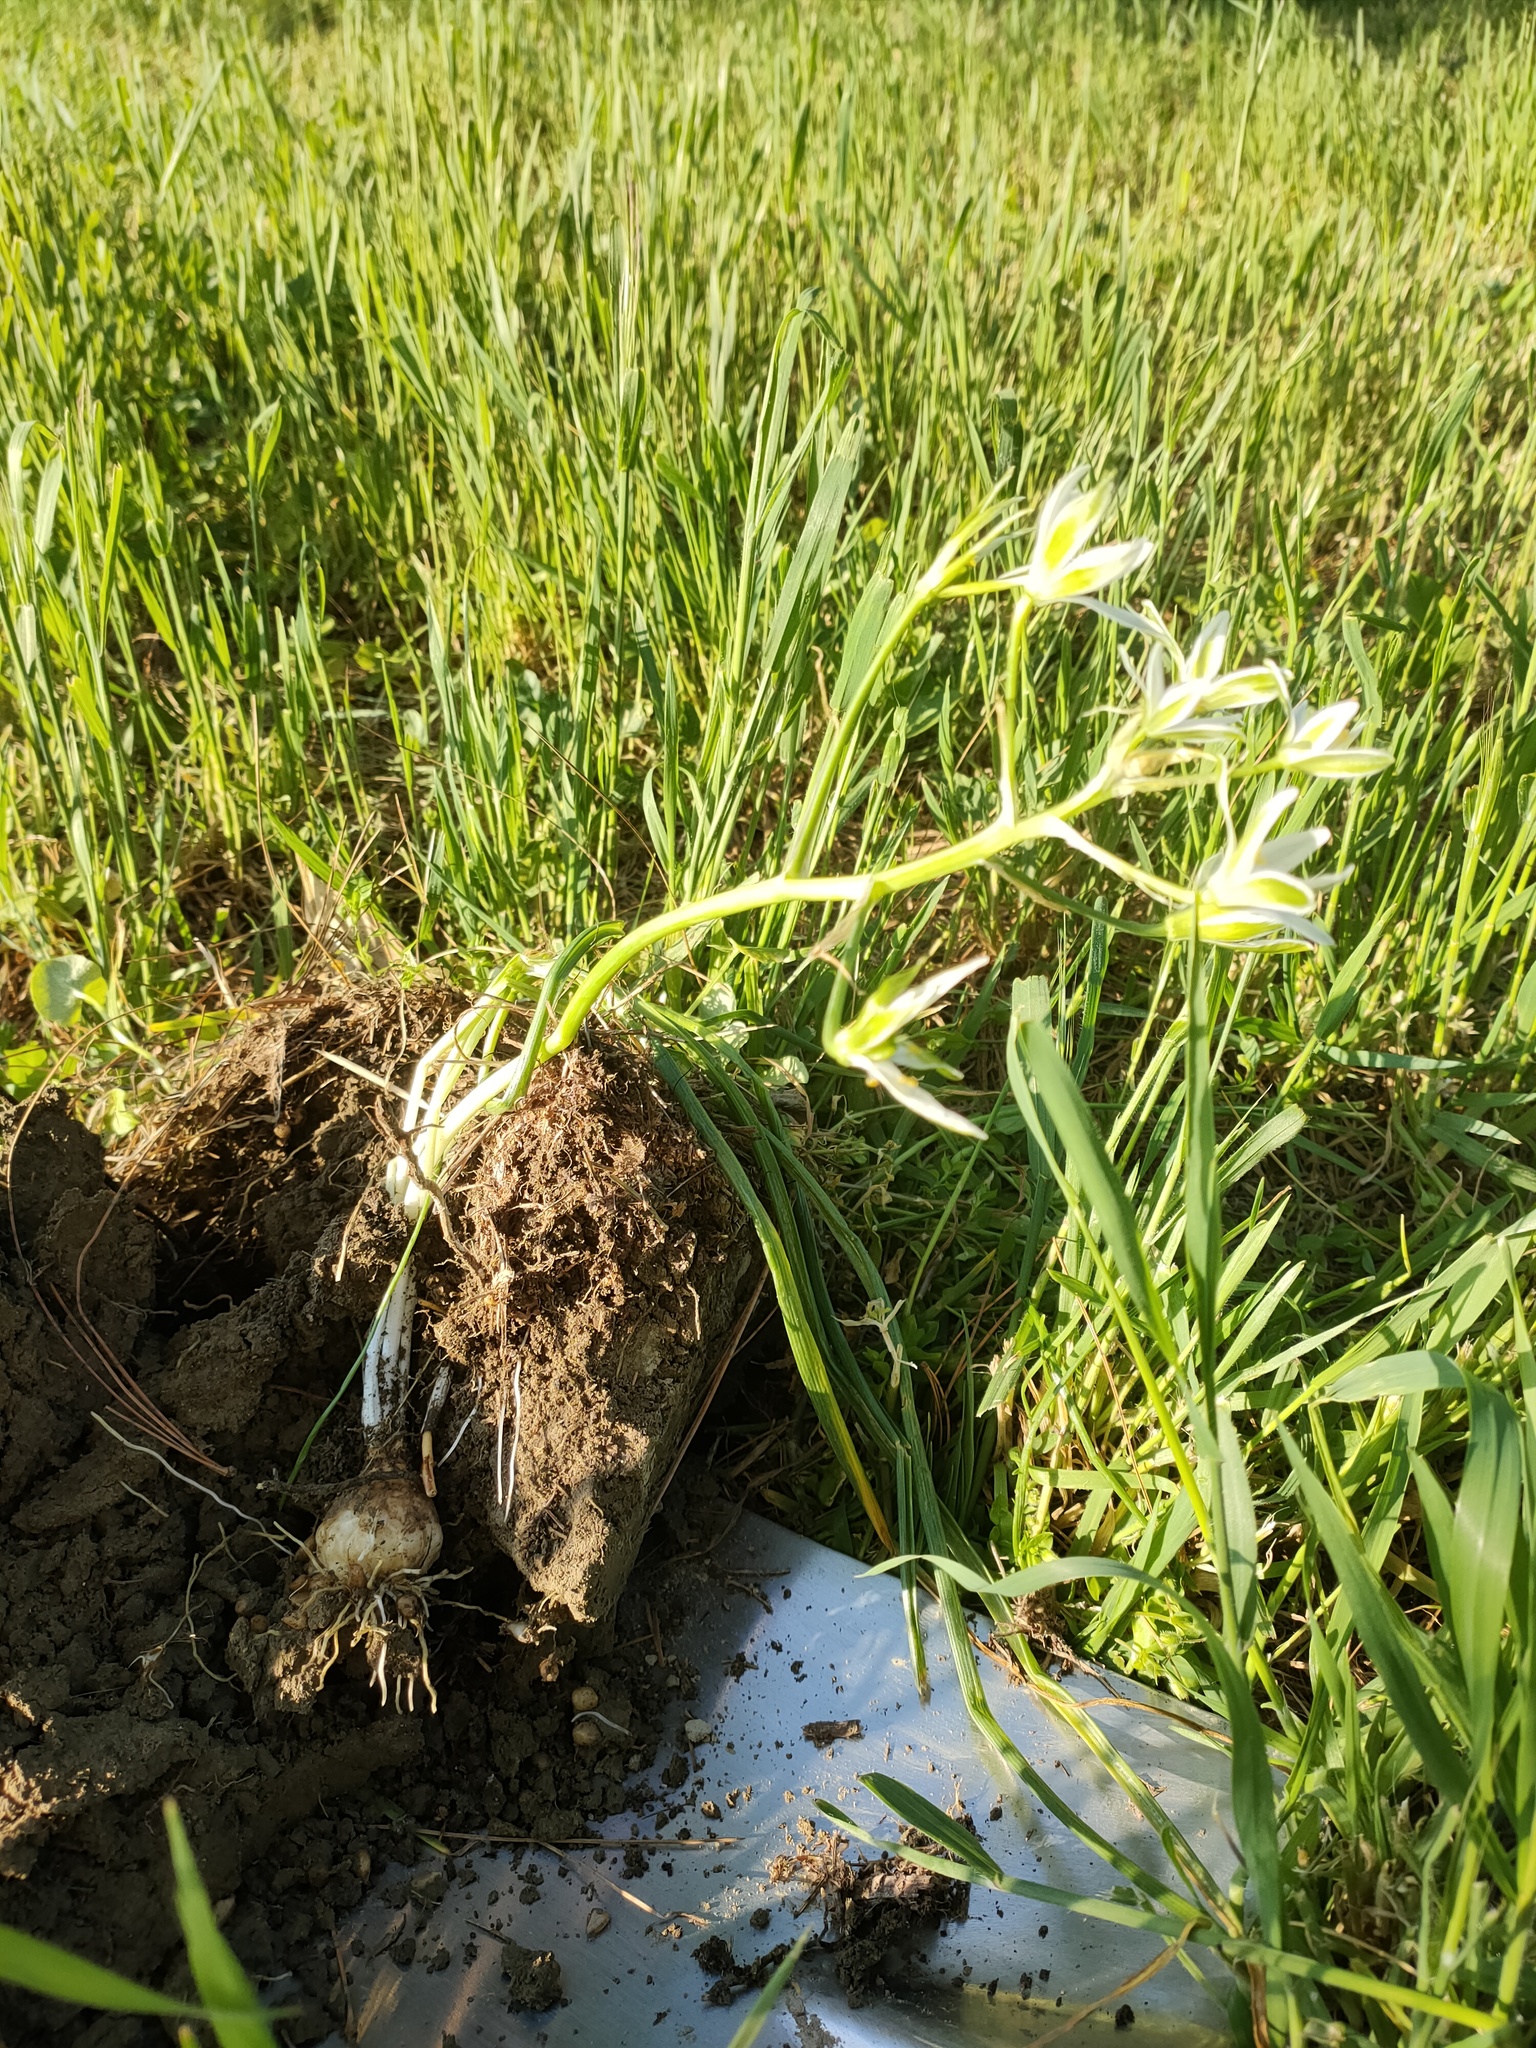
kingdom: Plantae
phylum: Tracheophyta
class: Liliopsida
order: Asparagales
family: Asparagaceae
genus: Ornithogalum
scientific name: Ornithogalum divergens
